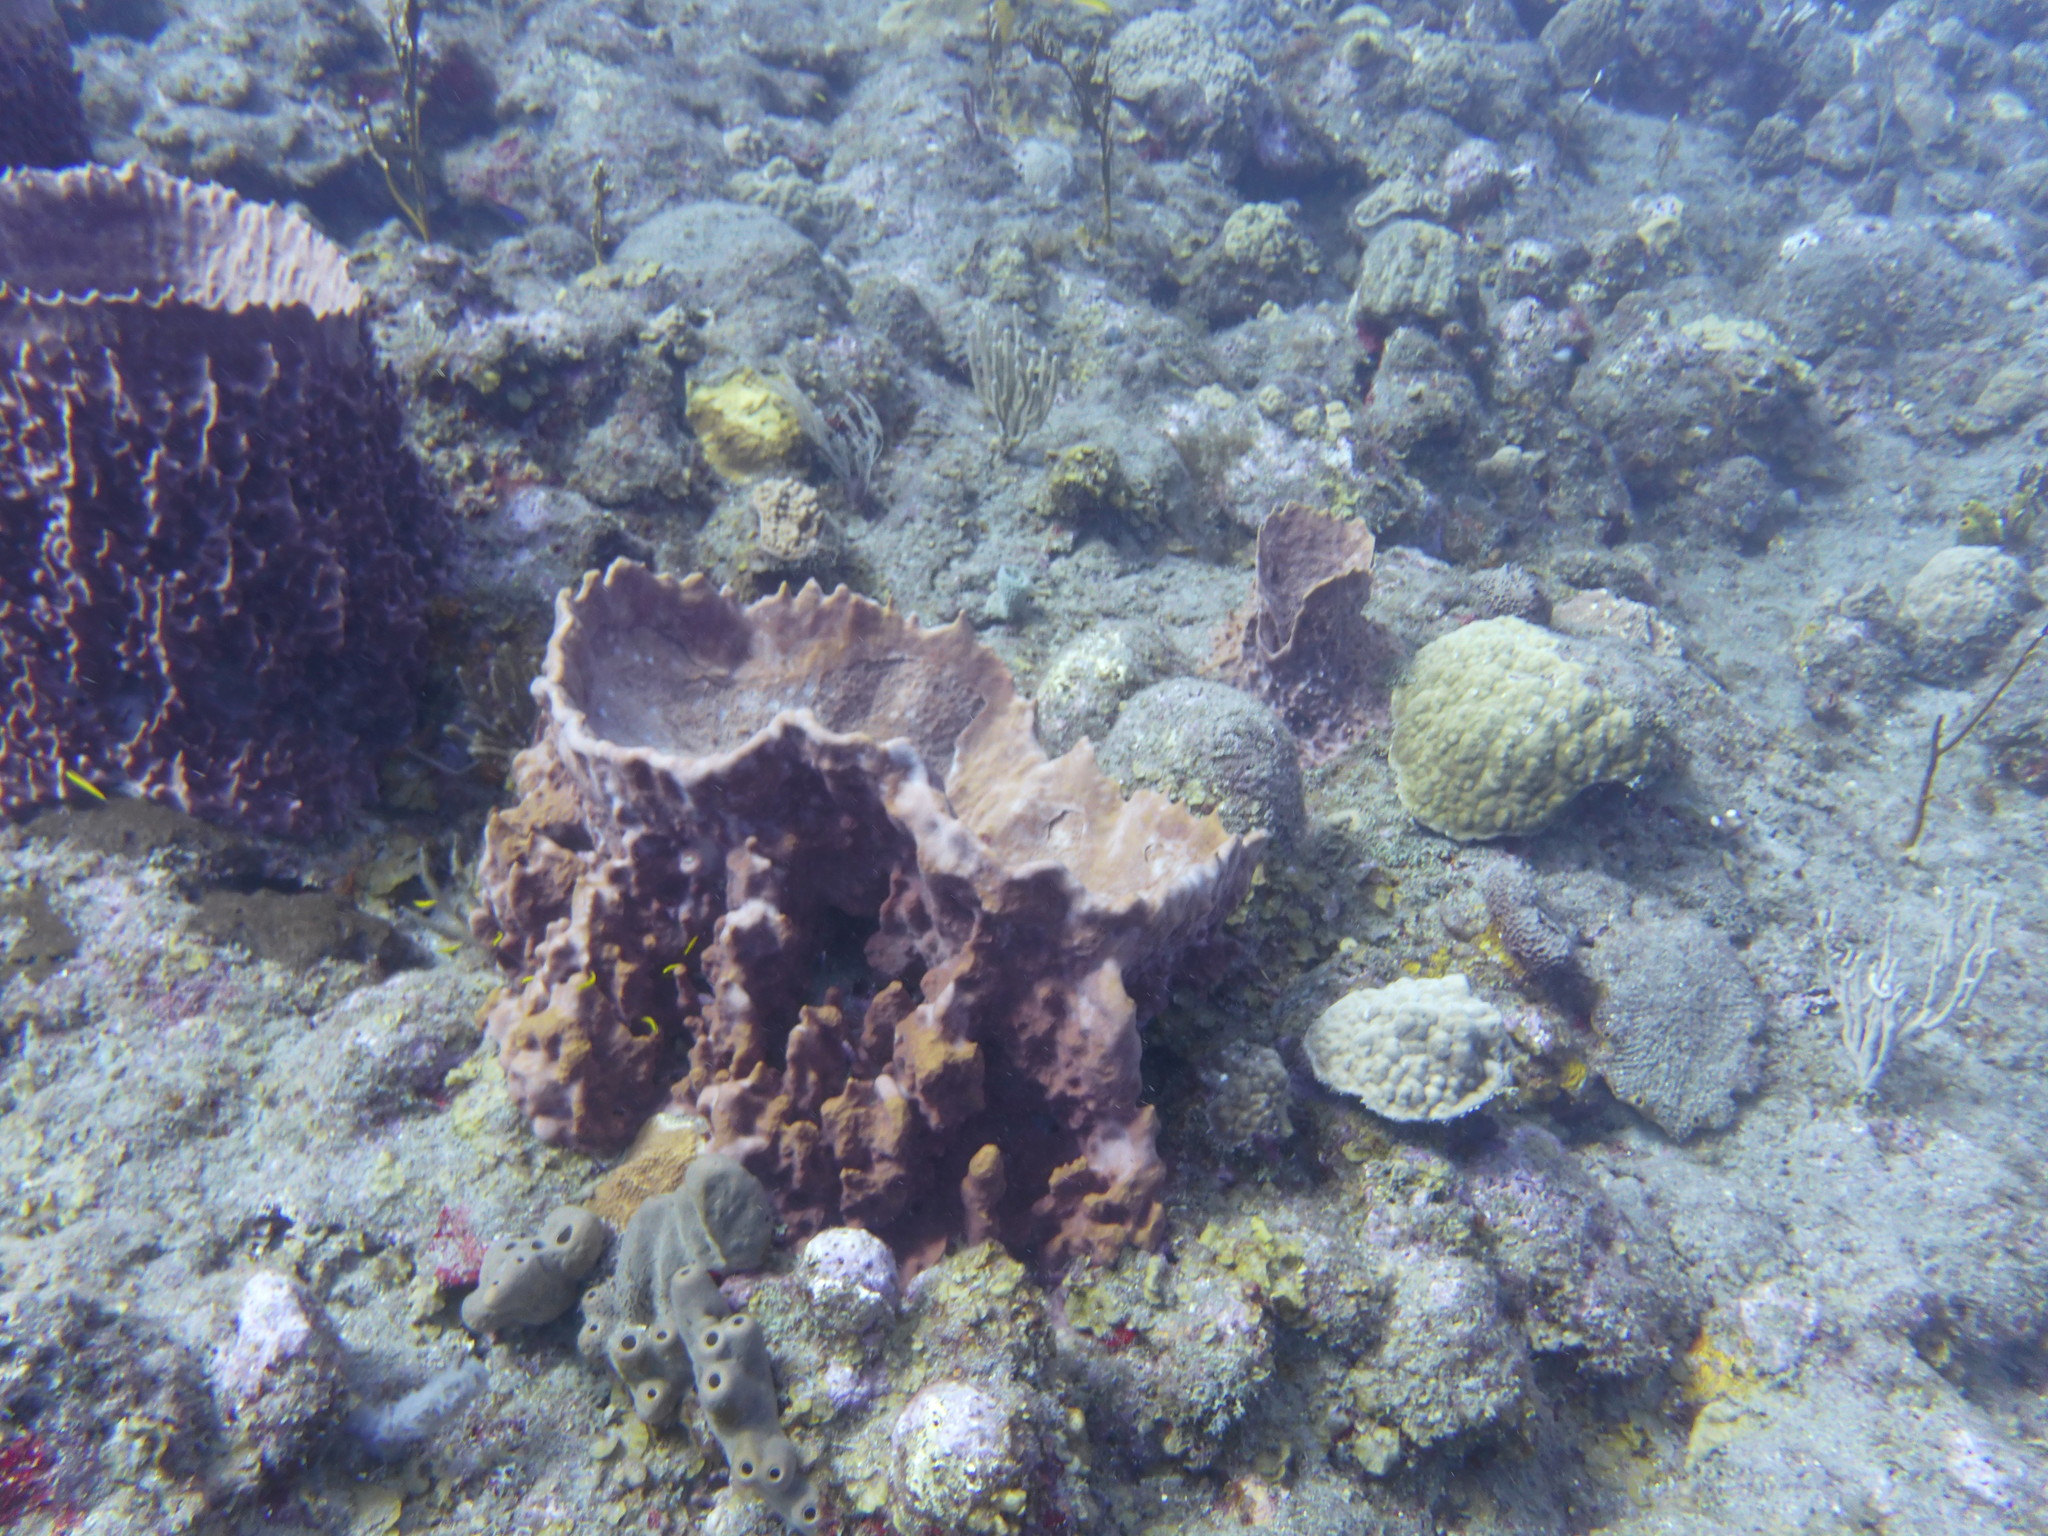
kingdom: Animalia
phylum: Porifera
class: Demospongiae
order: Haplosclerida
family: Petrosiidae
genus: Xestospongia
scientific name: Xestospongia muta
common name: Giant barrel sponge
